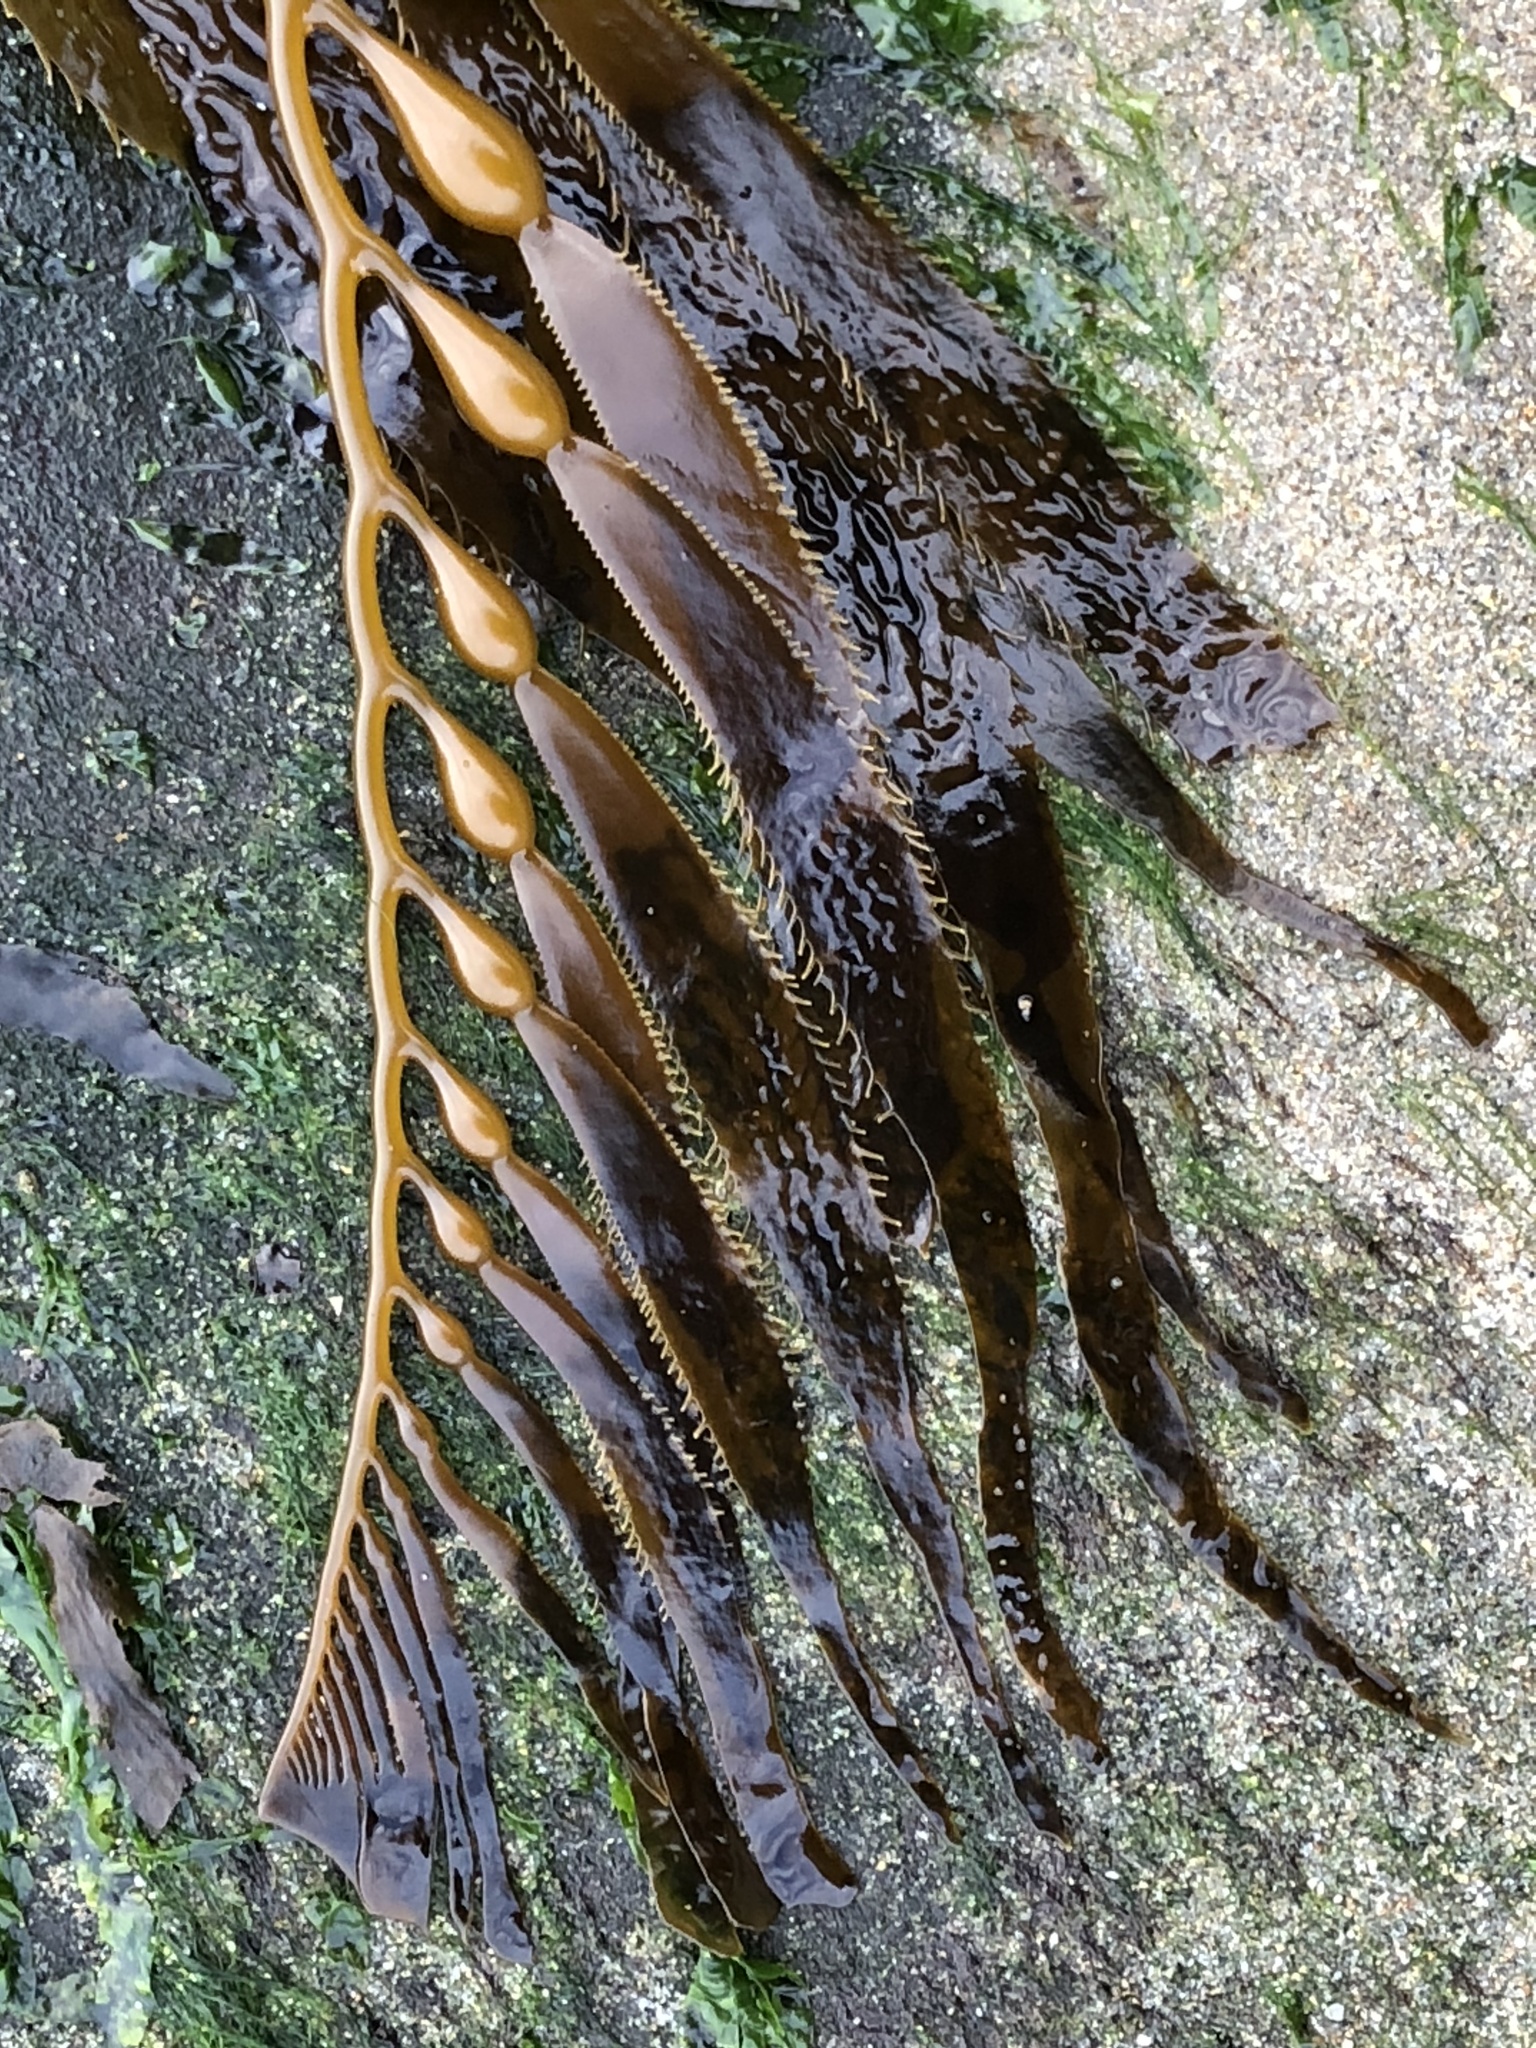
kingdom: Chromista
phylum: Ochrophyta
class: Phaeophyceae
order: Laminariales
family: Laminariaceae
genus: Macrocystis
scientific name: Macrocystis pyrifera
